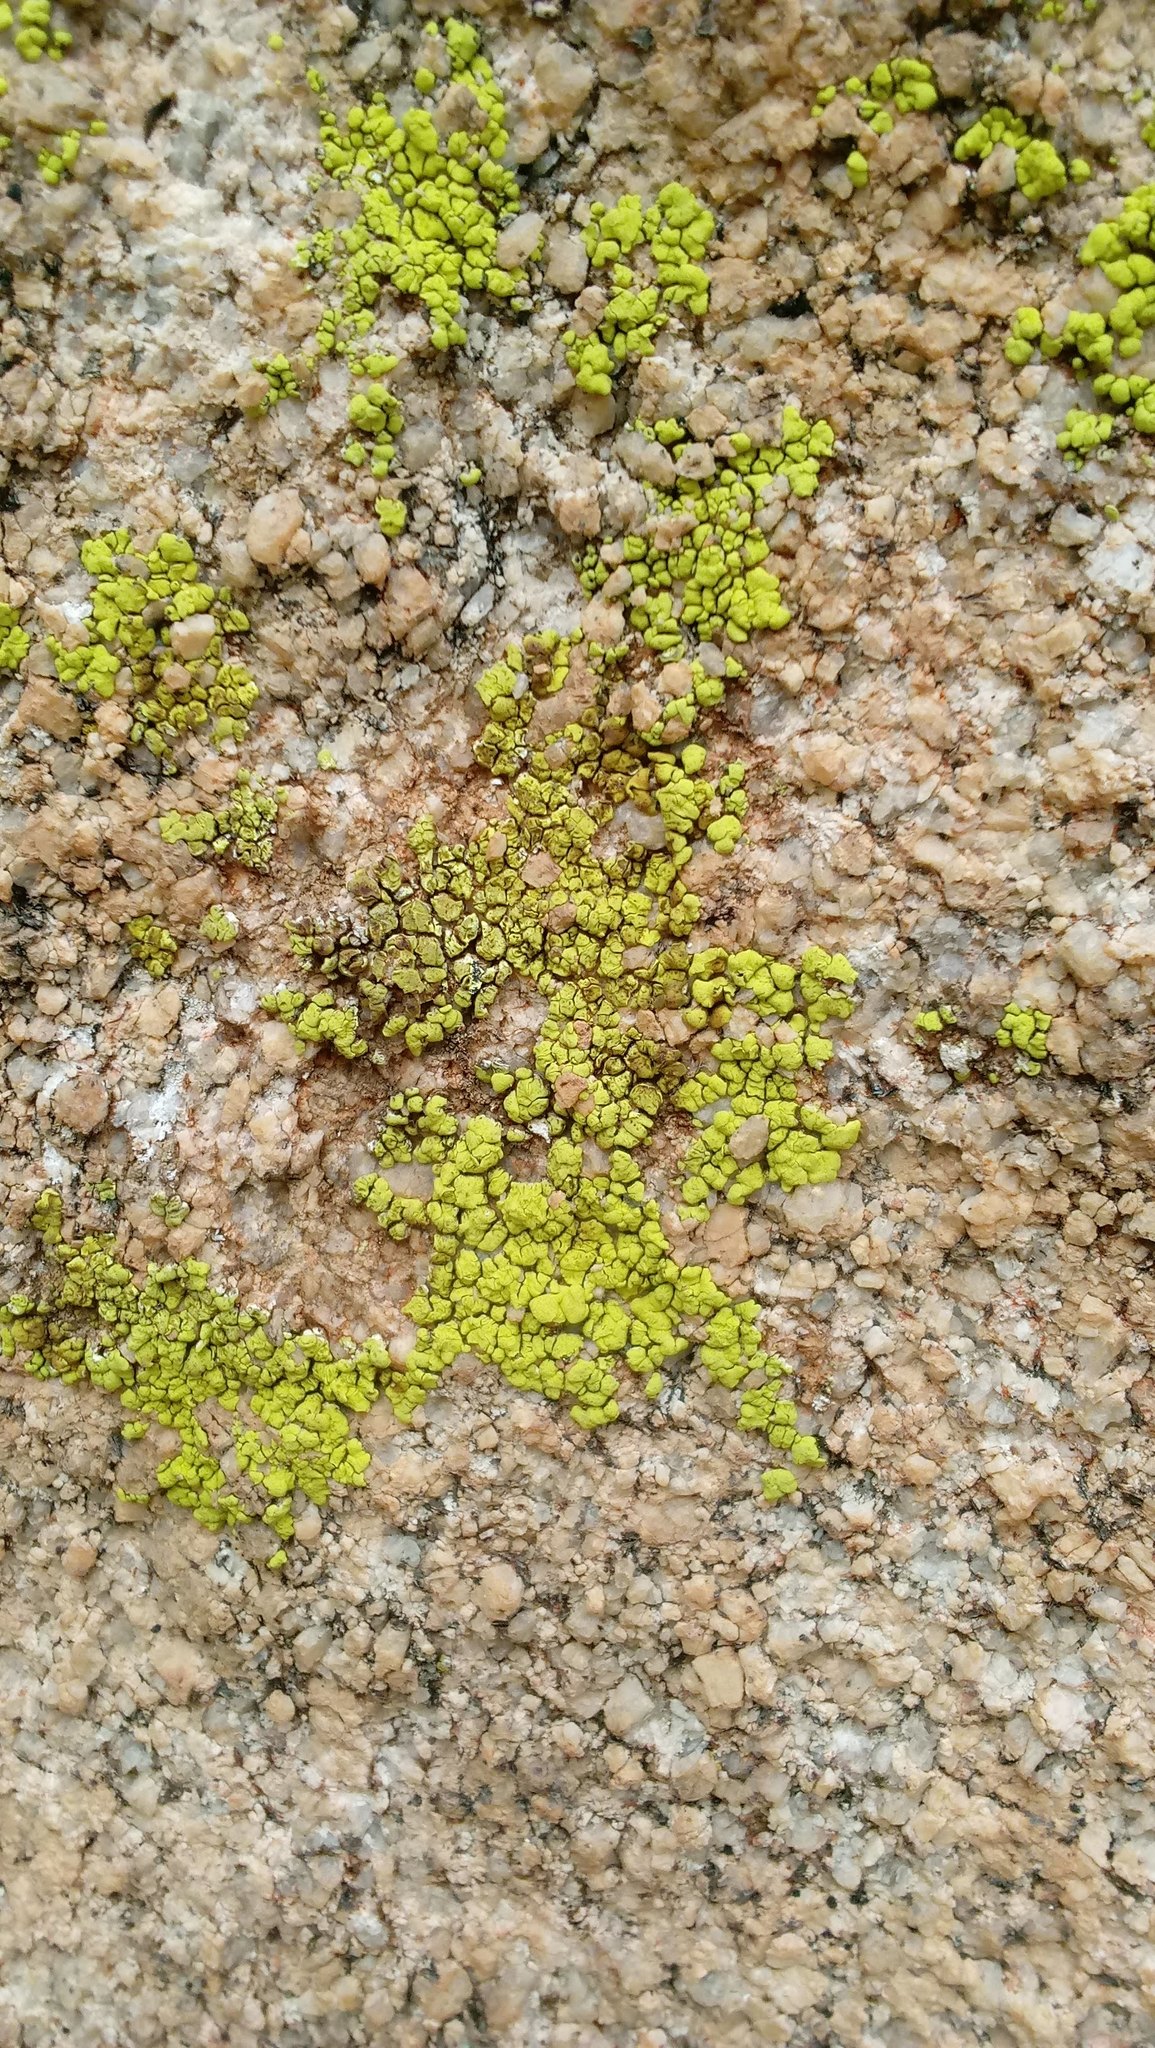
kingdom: Fungi
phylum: Ascomycota
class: Lecanoromycetes
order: Acarosporales
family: Acarosporaceae
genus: Acarospora
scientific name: Acarospora socialis
